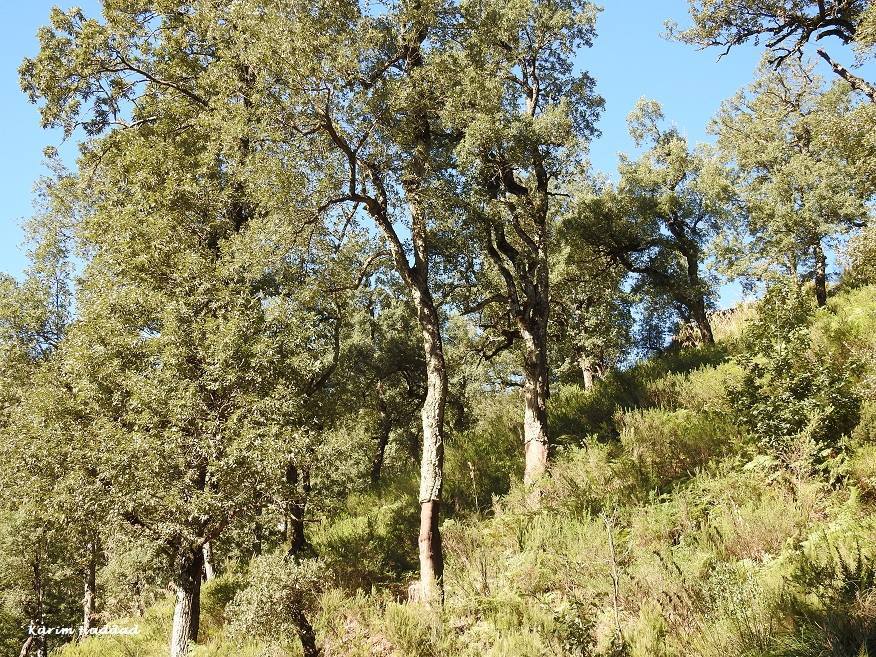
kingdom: Plantae
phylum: Tracheophyta
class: Magnoliopsida
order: Fagales
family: Fagaceae
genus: Quercus
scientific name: Quercus suber
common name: Cork oak
